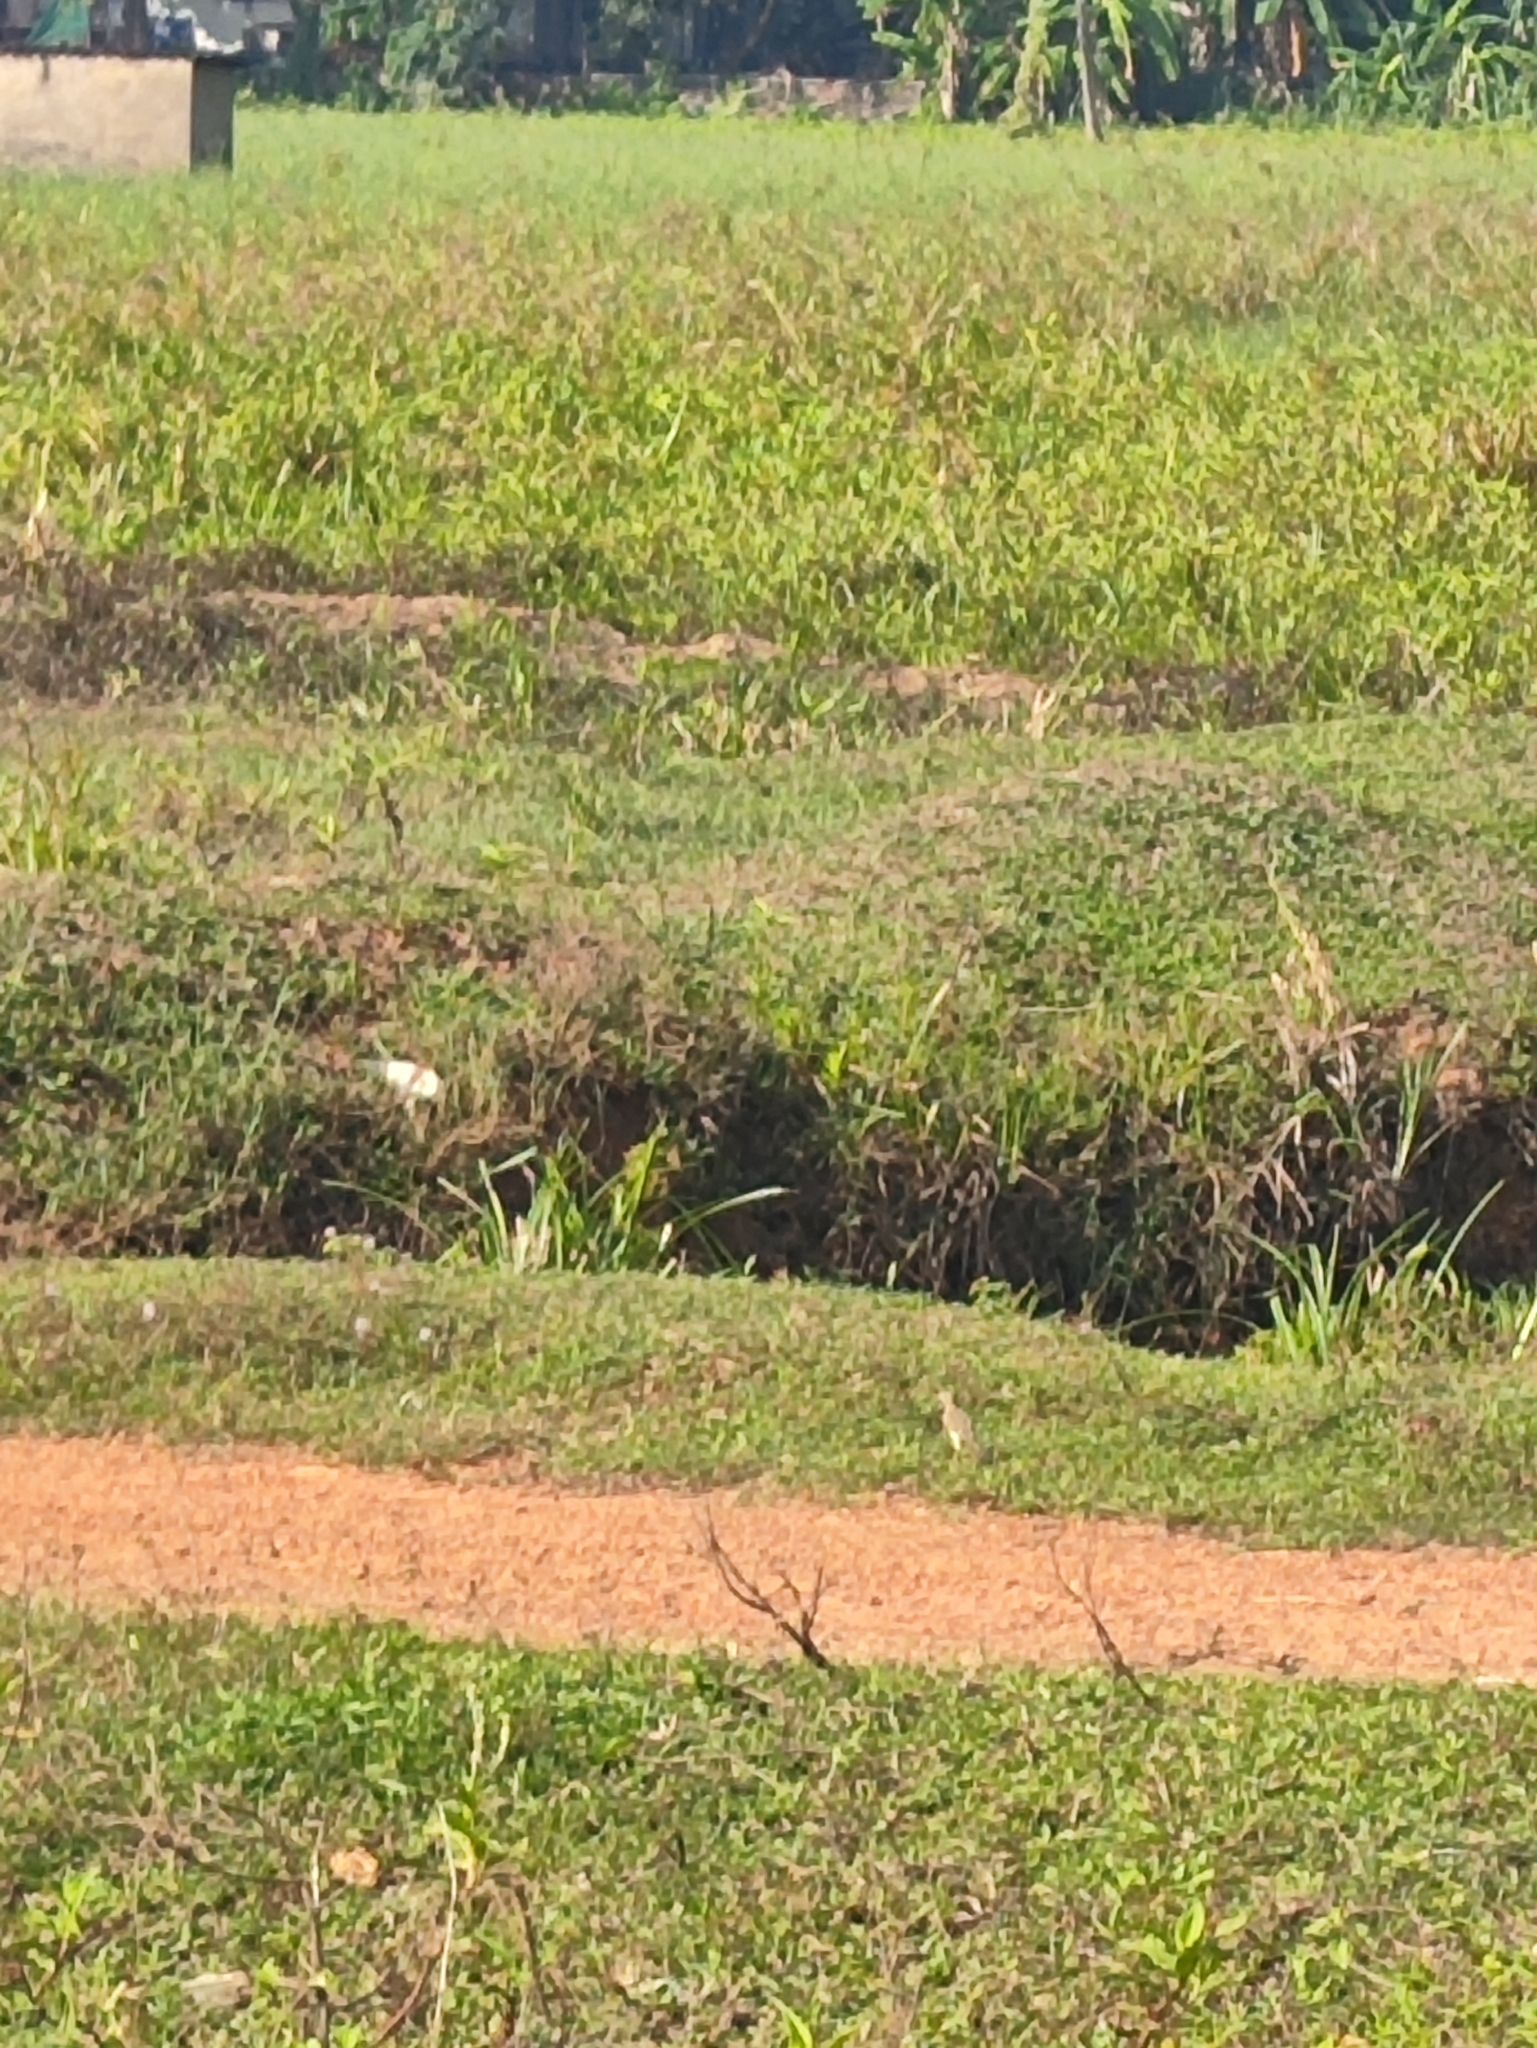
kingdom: Animalia
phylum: Chordata
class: Aves
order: Passeriformes
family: Motacillidae
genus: Motacilla
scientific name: Motacilla flava
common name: Western yellow wagtail
